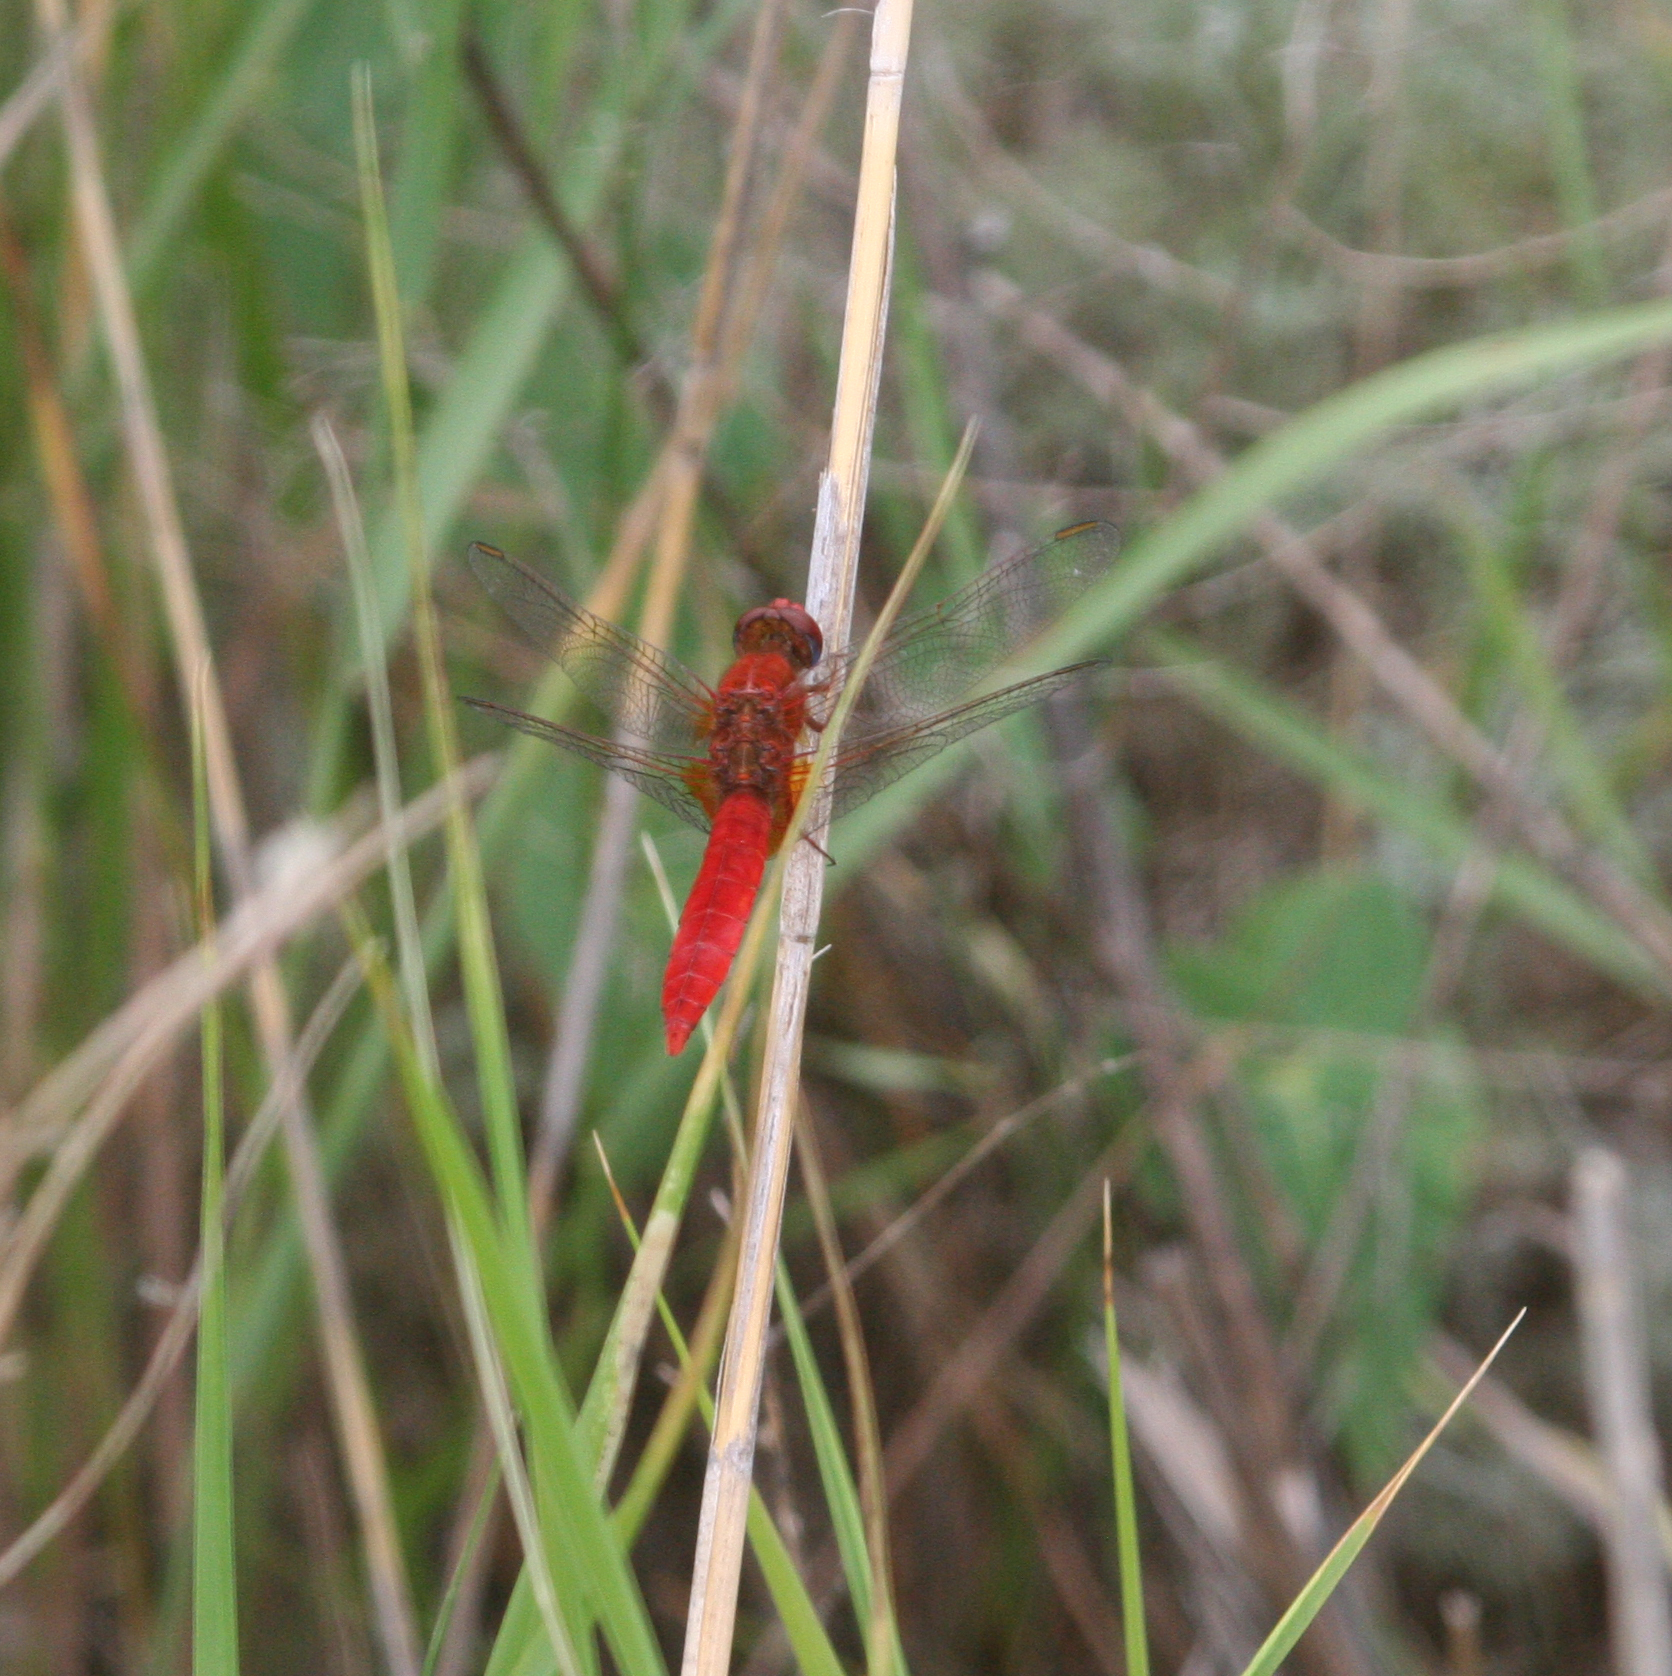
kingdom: Animalia
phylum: Arthropoda
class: Insecta
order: Odonata
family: Libellulidae
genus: Crocothemis
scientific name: Crocothemis erythraea
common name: Scarlet dragonfly
